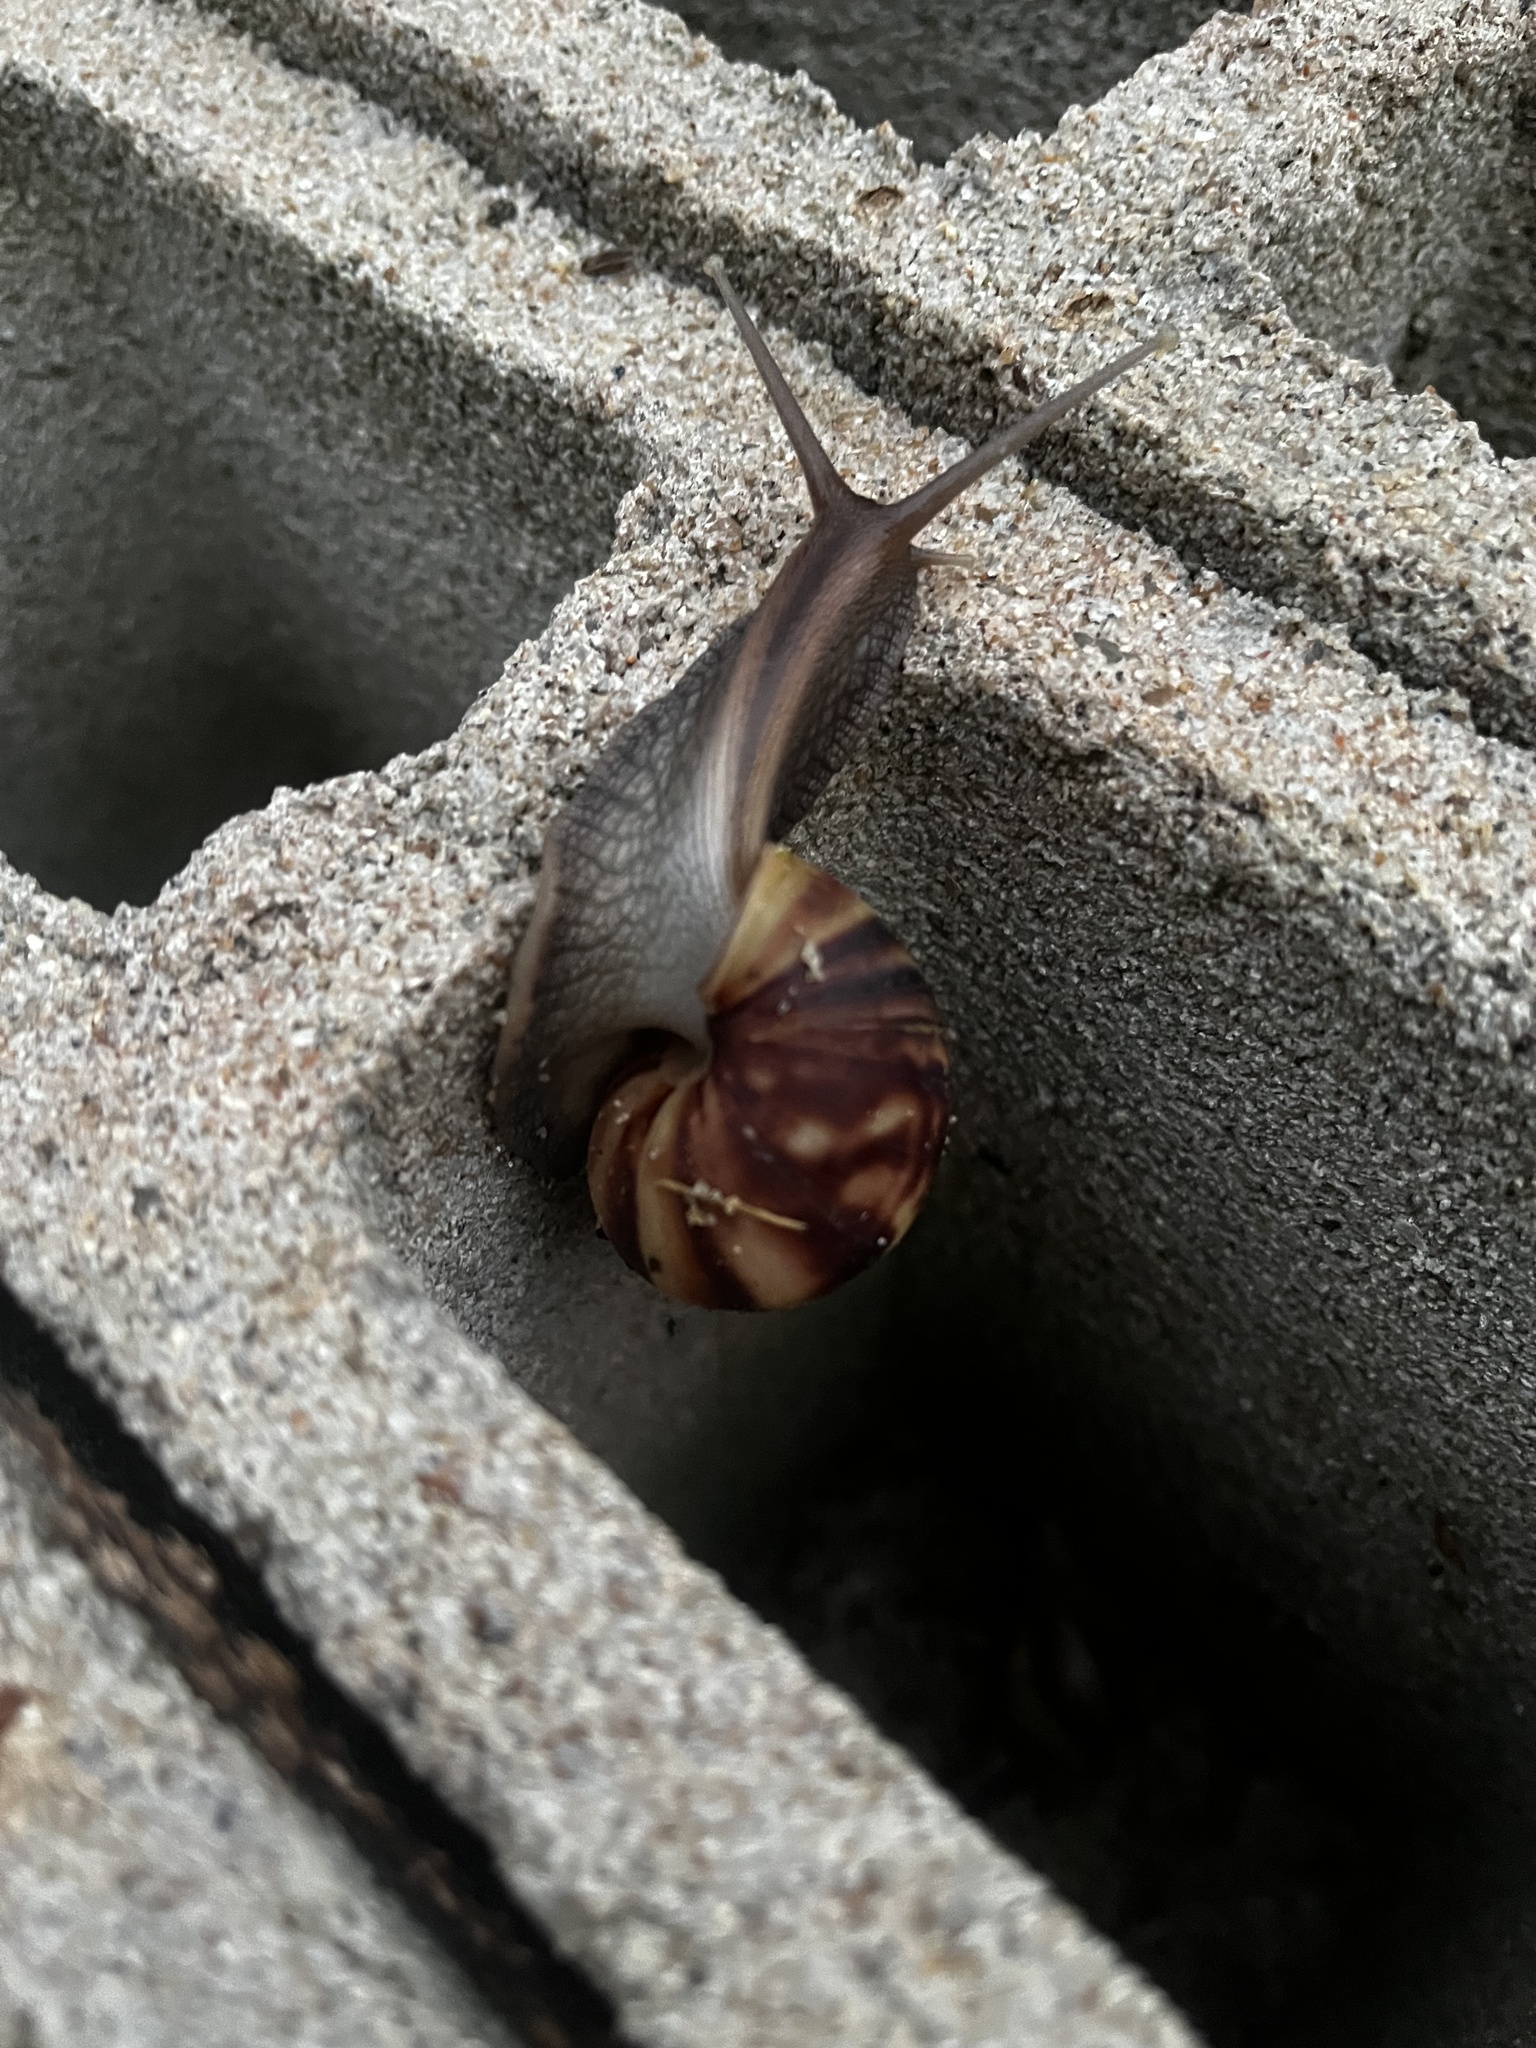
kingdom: Animalia
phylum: Mollusca
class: Gastropoda
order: Stylommatophora
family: Achatinidae
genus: Lissachatina
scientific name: Lissachatina fulica
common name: Giant african snail
